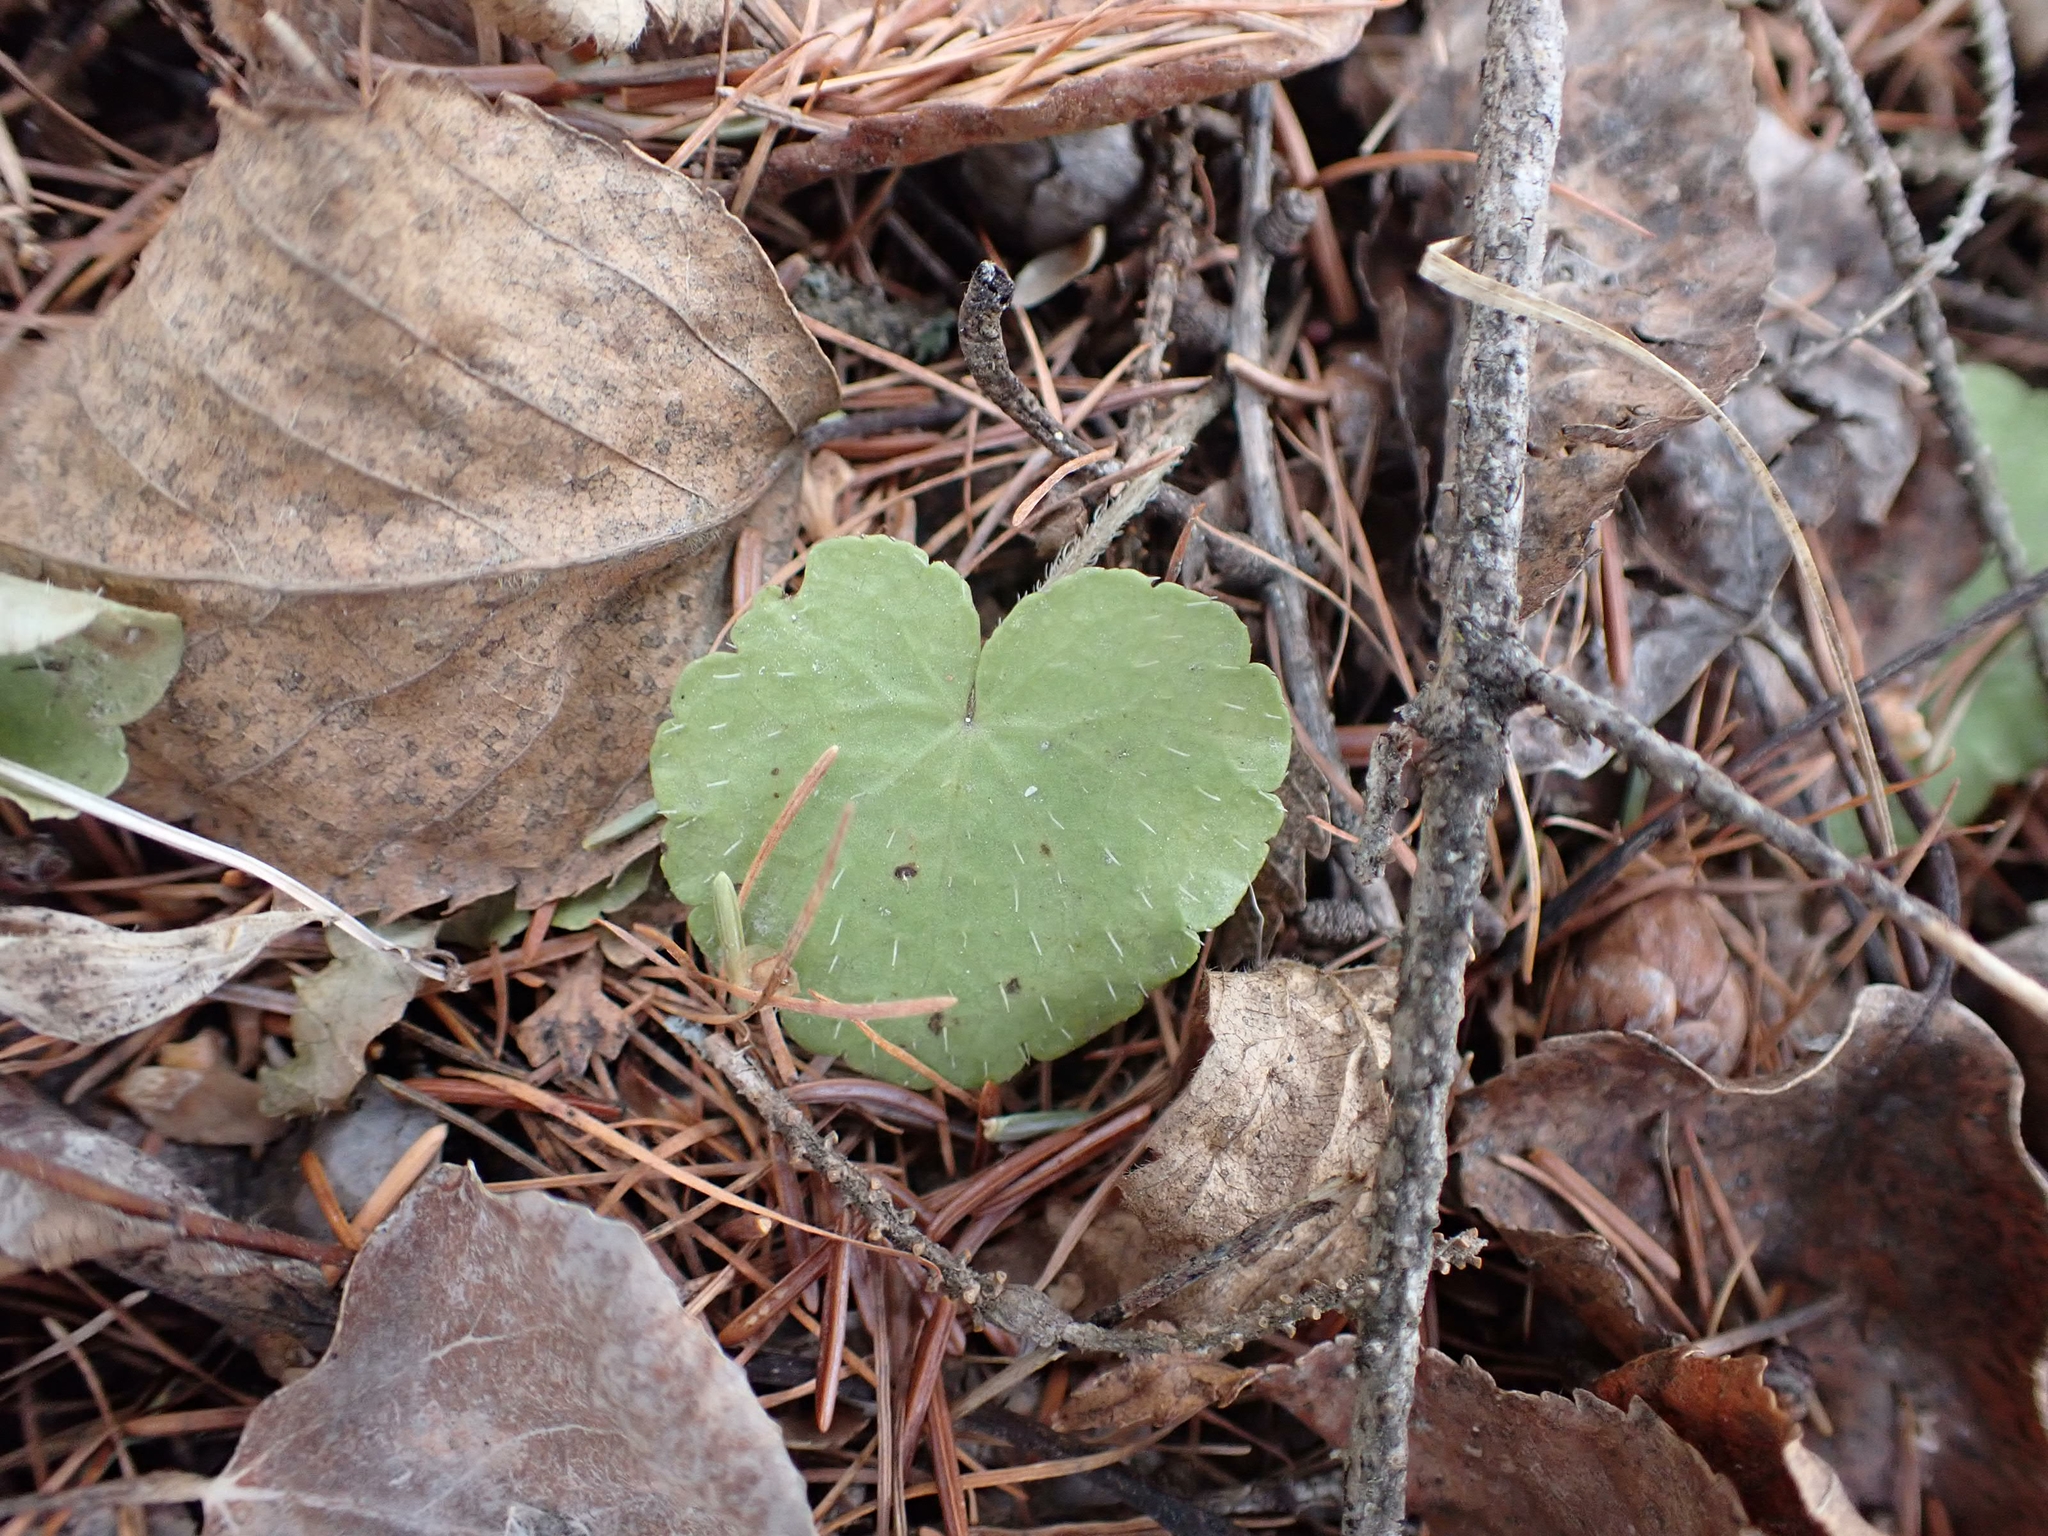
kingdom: Plantae
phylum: Tracheophyta
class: Magnoliopsida
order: Saxifragales
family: Saxifragaceae
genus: Mitella
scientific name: Mitella nuda
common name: Bare-stemmed bishop's-cap
